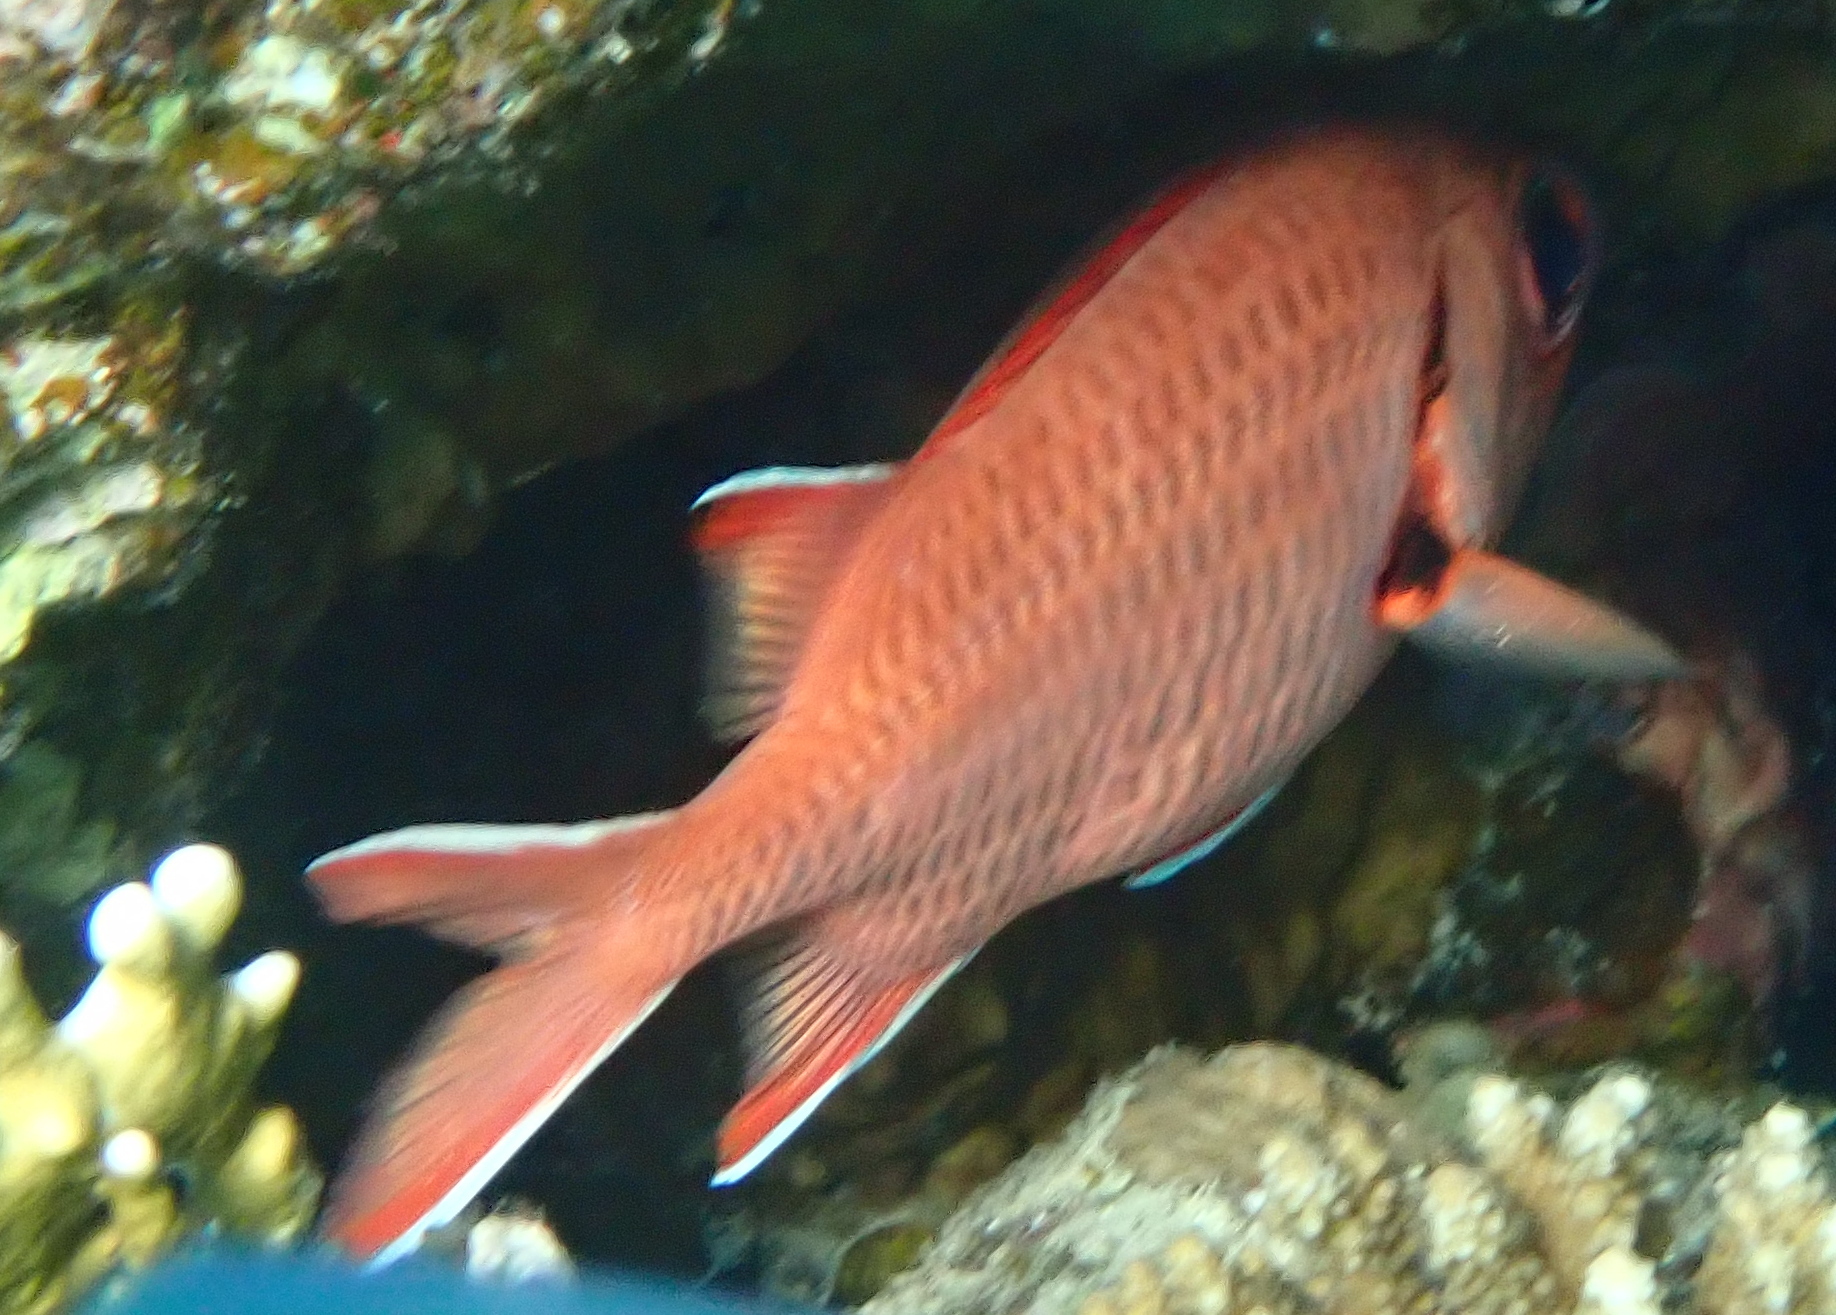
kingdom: Animalia
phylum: Chordata
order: Beryciformes
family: Holocentridae
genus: Myripristis
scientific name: Myripristis murdjan
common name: Big-eye soldierfish
